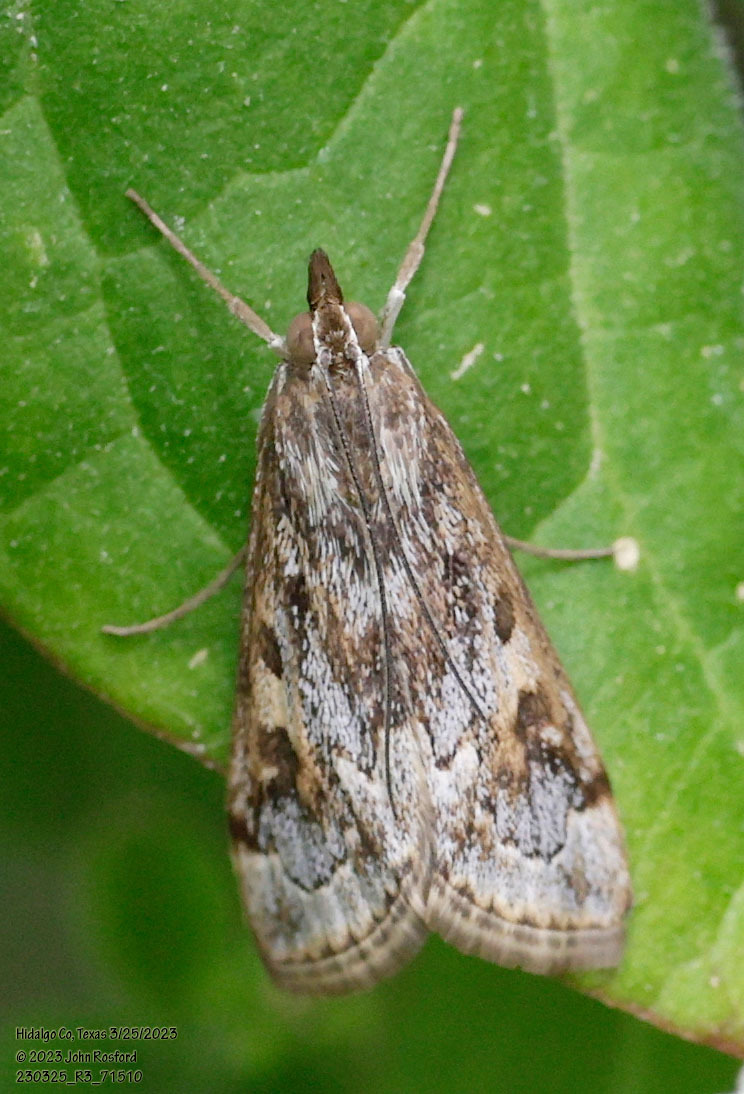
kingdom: Animalia
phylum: Arthropoda
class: Insecta
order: Lepidoptera
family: Crambidae
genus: Loxostege
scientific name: Loxostege allectalis
